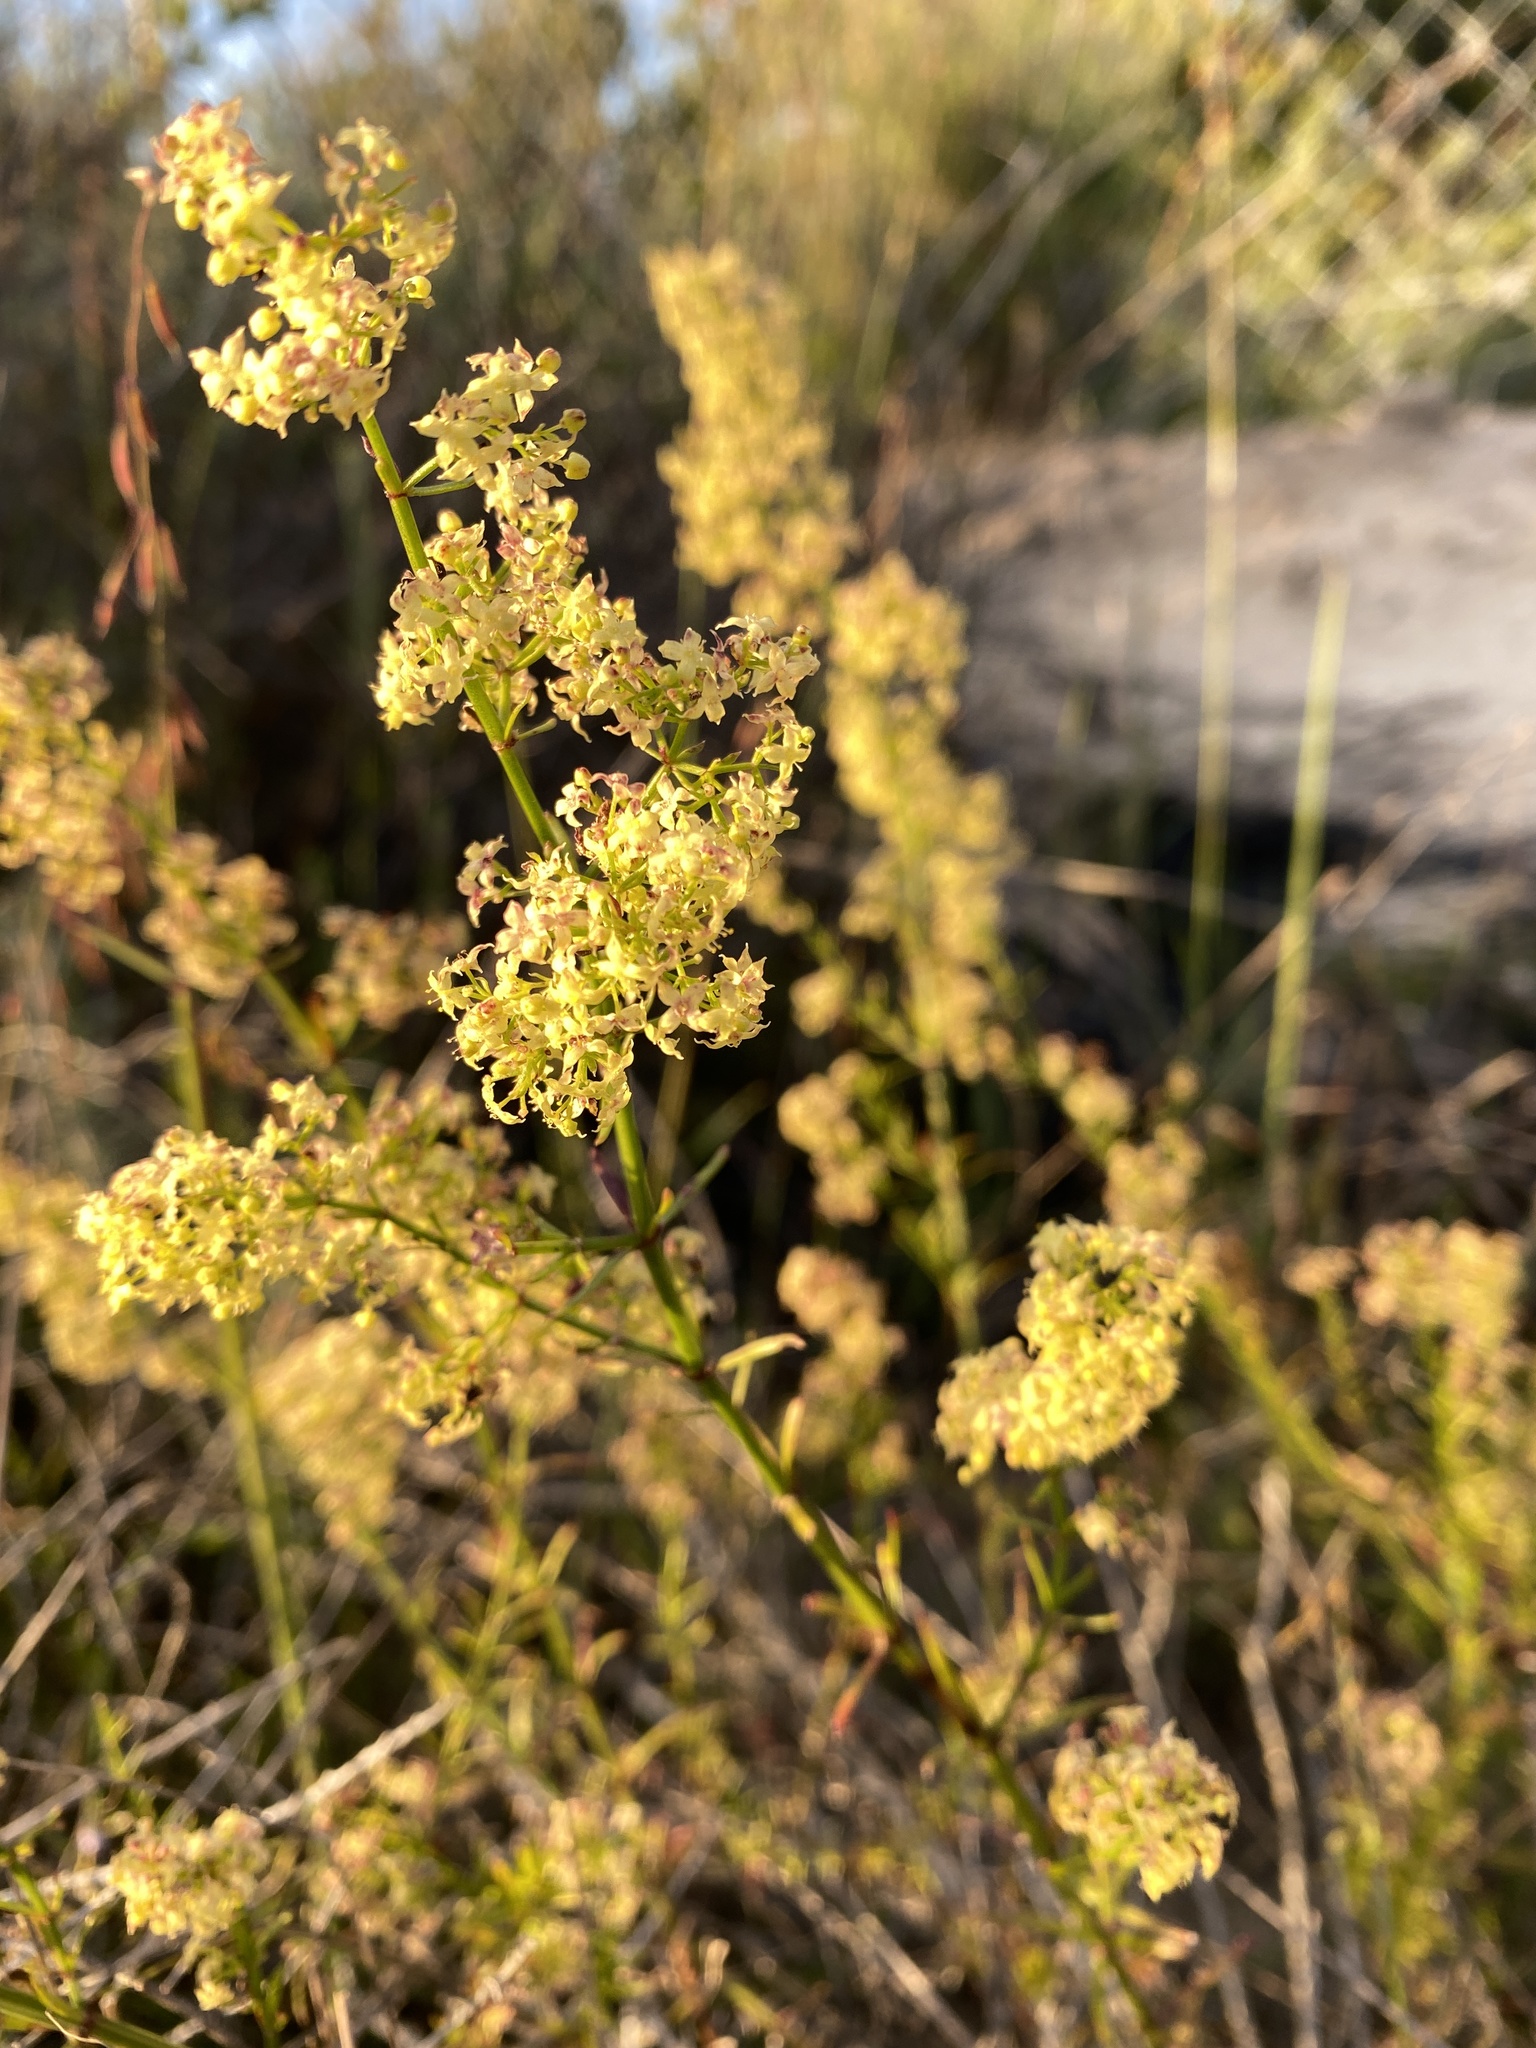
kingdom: Plantae
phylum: Tracheophyta
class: Magnoliopsida
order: Gentianales
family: Rubiaceae
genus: Galium
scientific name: Galium angustifolium
